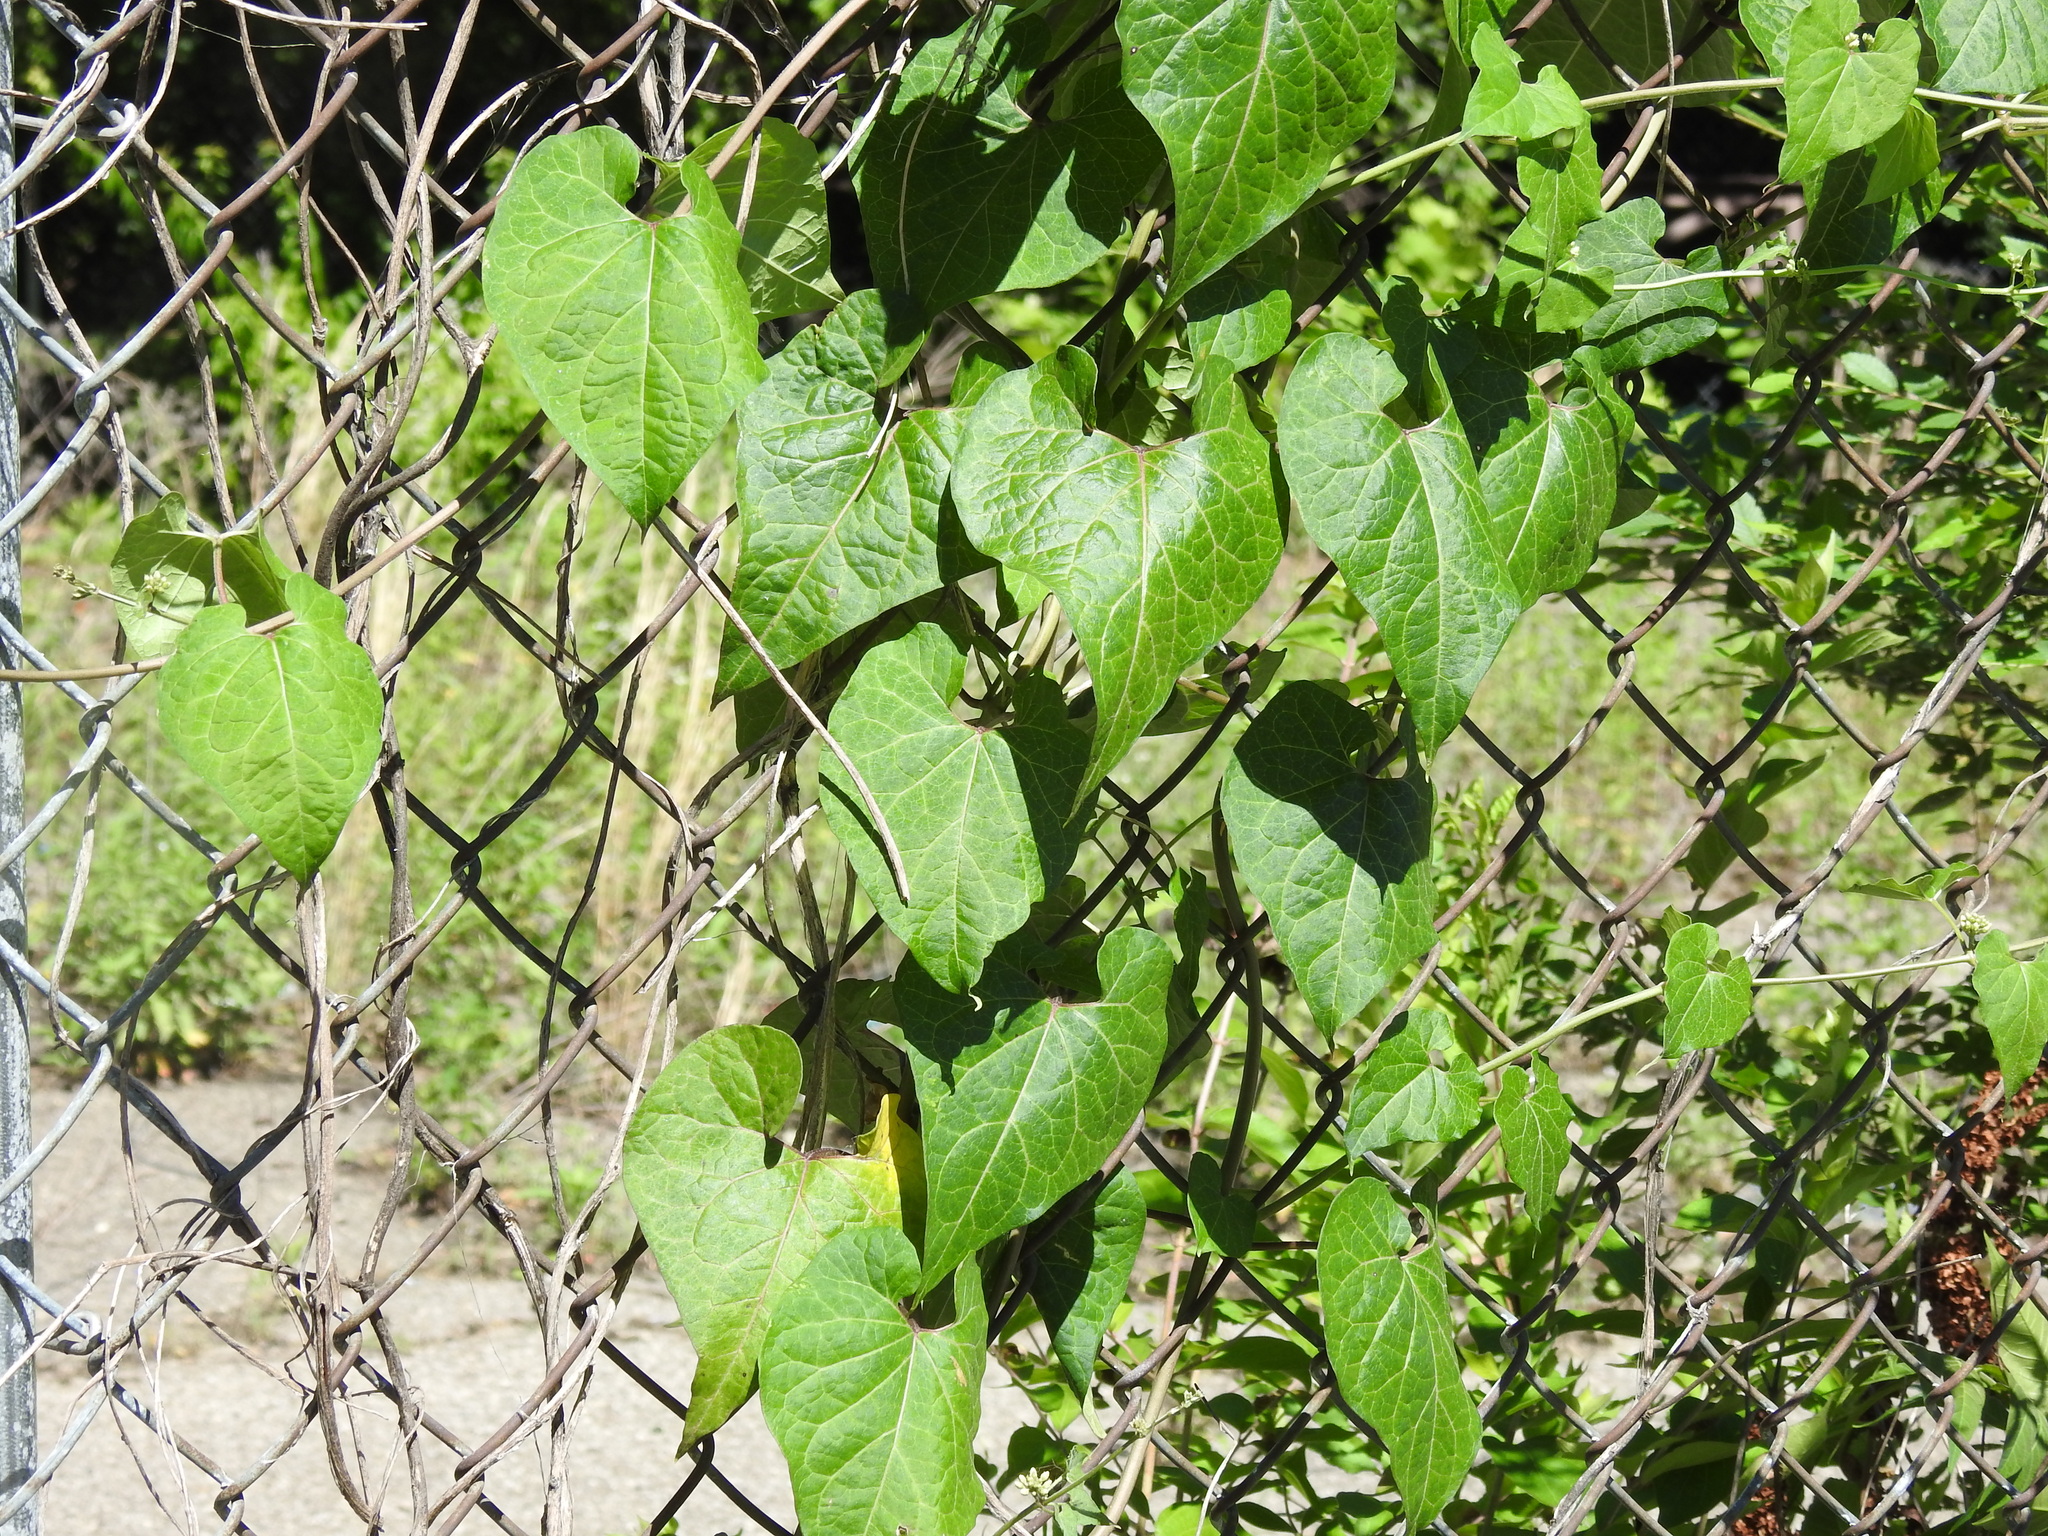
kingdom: Plantae
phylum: Tracheophyta
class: Magnoliopsida
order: Gentianales
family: Apocynaceae
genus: Cynanchum
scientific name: Cynanchum laeve
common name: Sandvine
